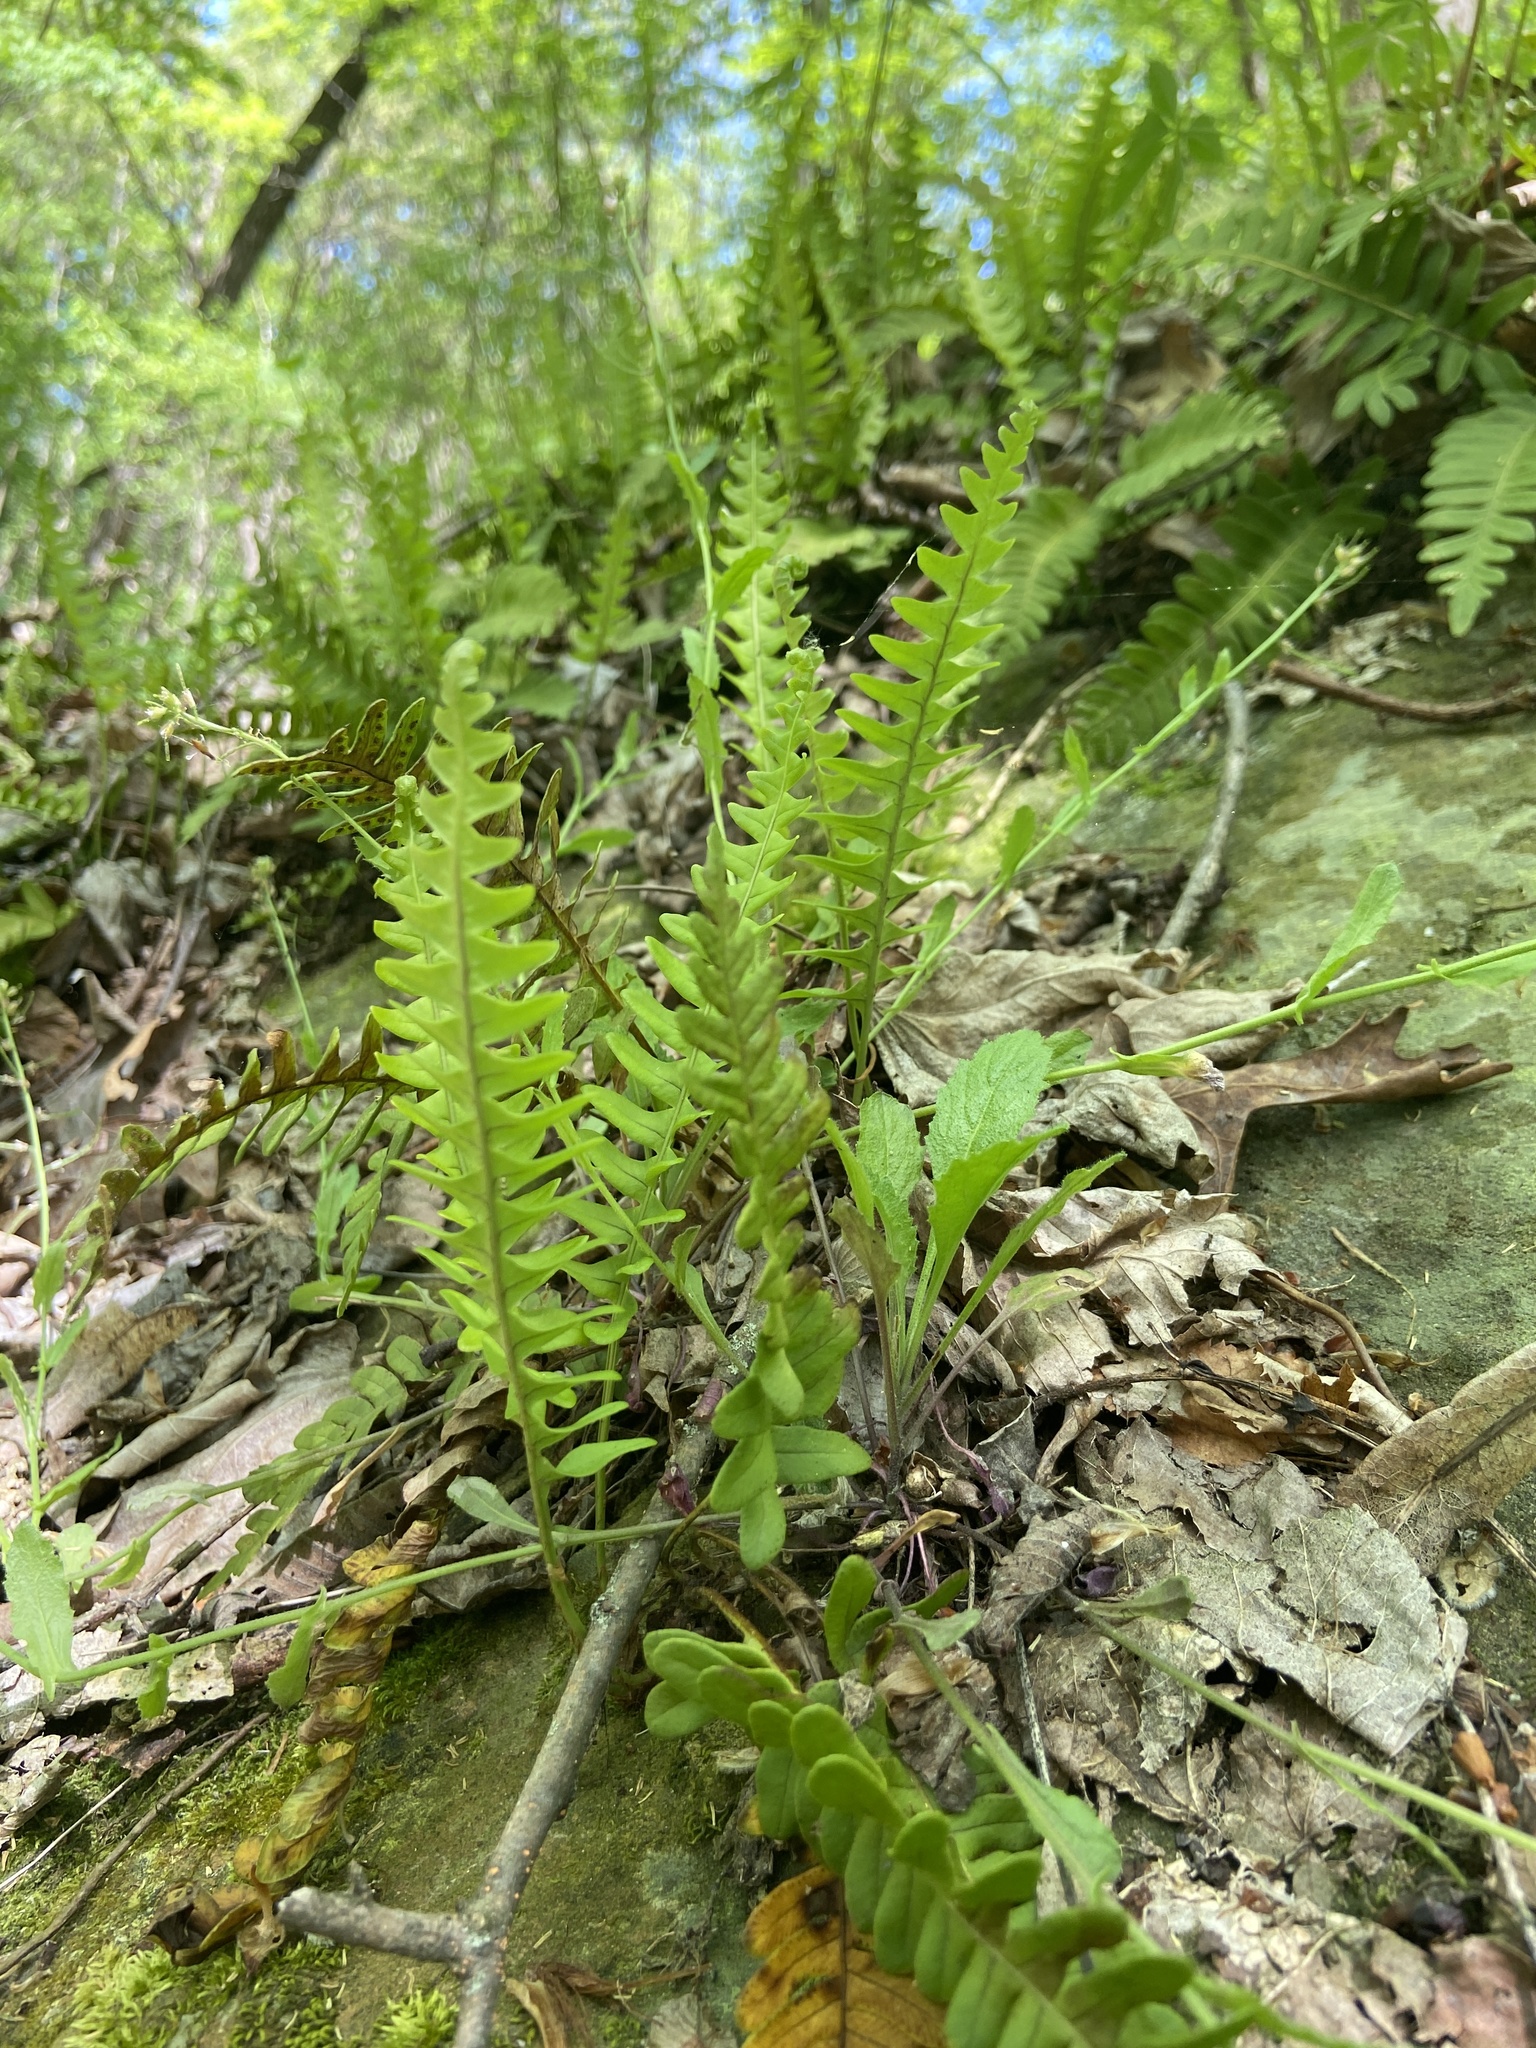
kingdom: Plantae
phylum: Tracheophyta
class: Polypodiopsida
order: Polypodiales
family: Polypodiaceae
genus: Polypodium
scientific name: Polypodium virginianum
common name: American wall fern
